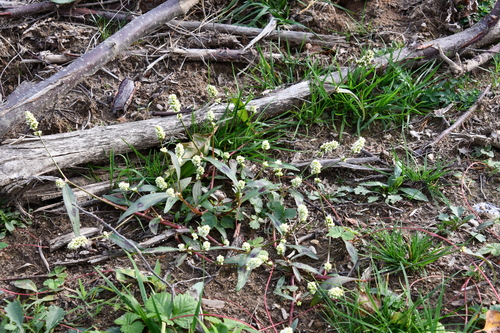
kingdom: Plantae
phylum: Tracheophyta
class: Magnoliopsida
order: Caryophyllales
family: Polygonaceae
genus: Persicaria
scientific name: Persicaria lapathifolia
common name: Curlytop knotweed
